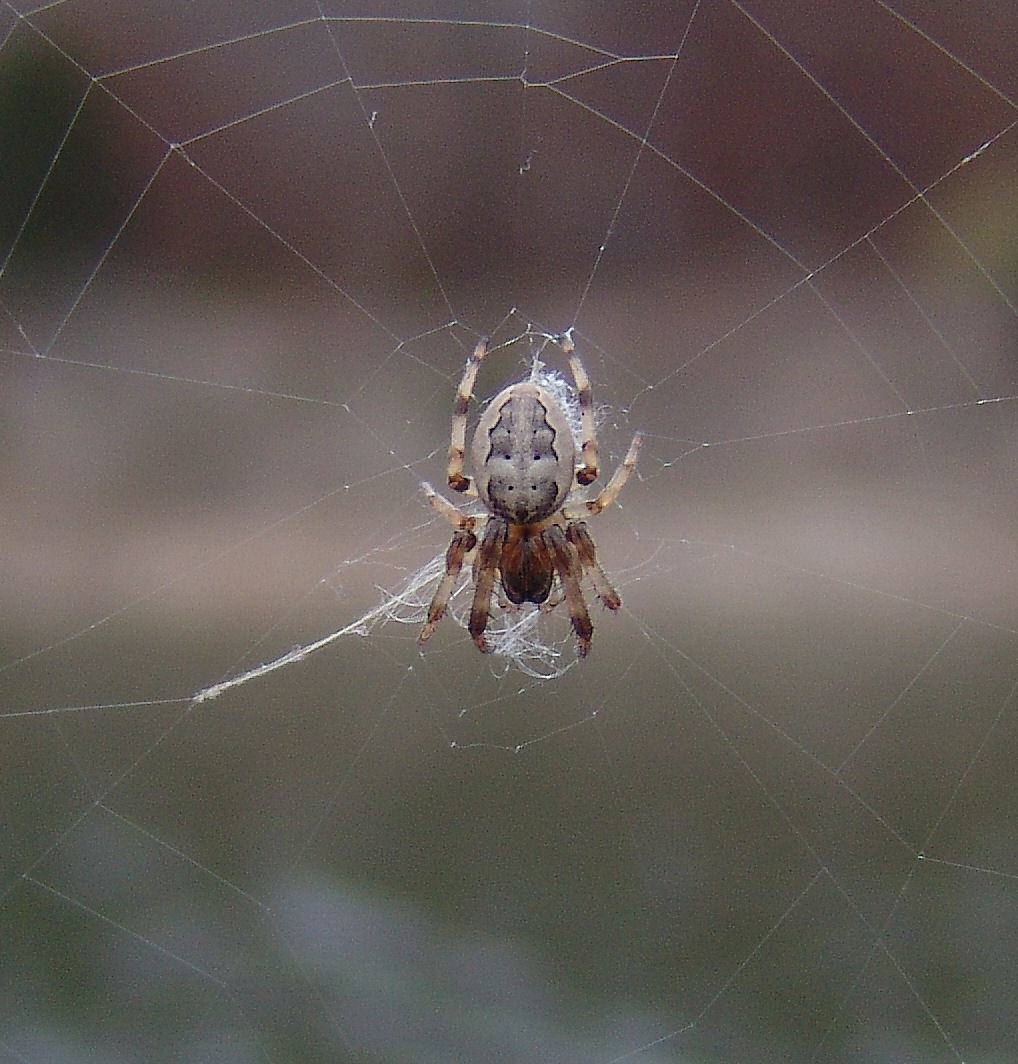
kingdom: Animalia
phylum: Arthropoda
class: Arachnida
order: Araneae
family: Araneidae
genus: Larinioides
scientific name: Larinioides cornutus
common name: Furrow orbweaver
